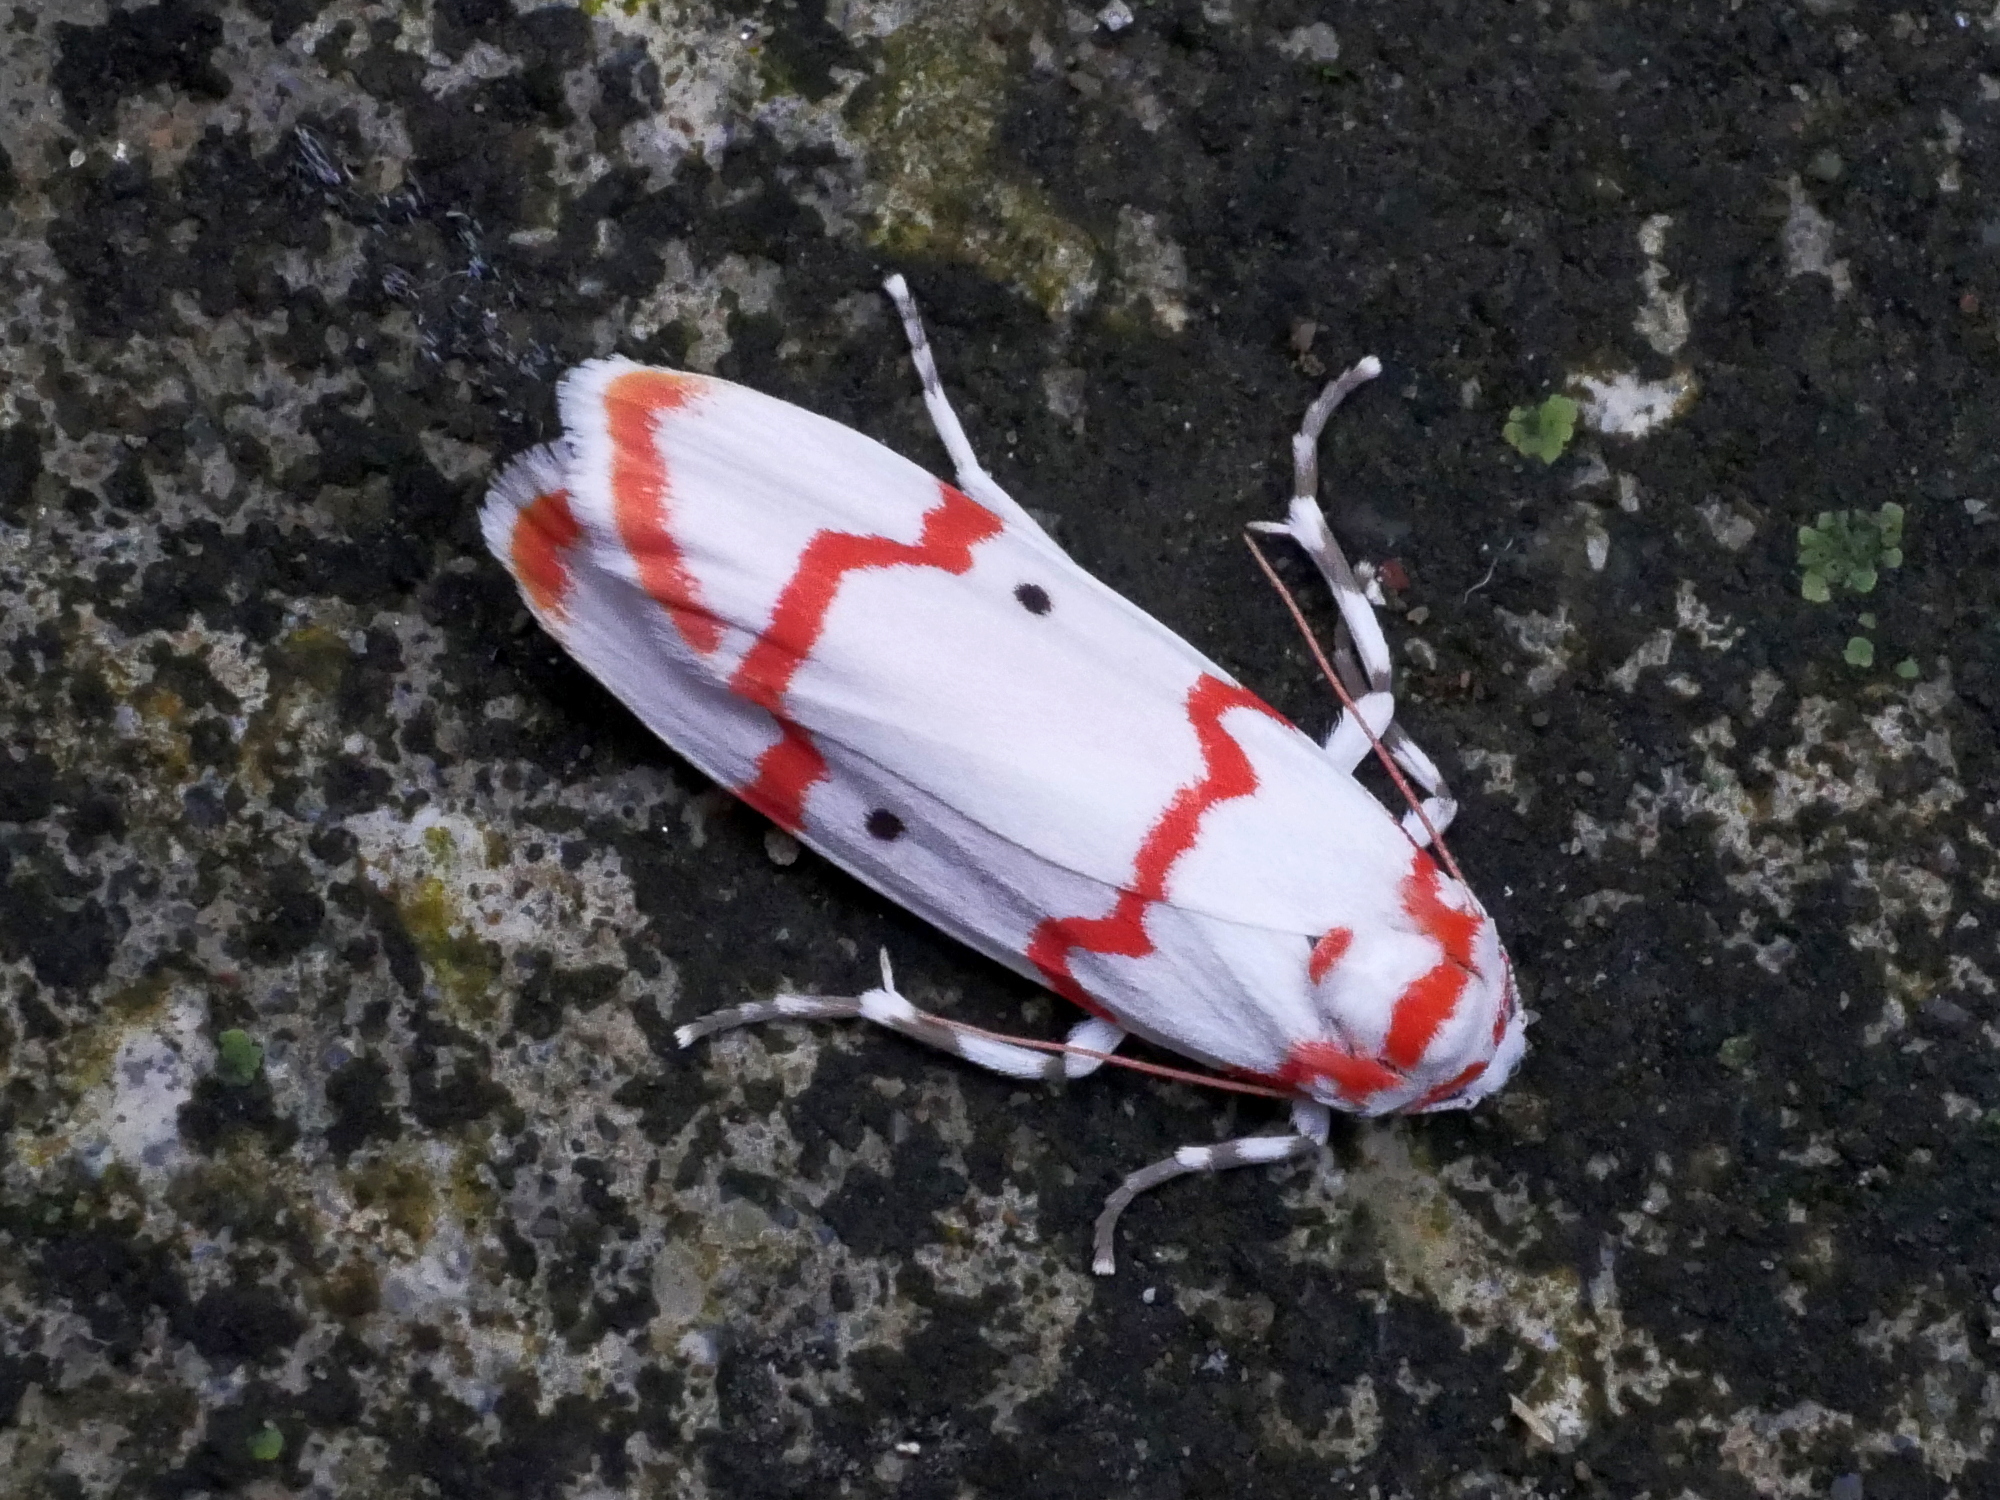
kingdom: Animalia
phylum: Arthropoda
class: Insecta
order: Lepidoptera
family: Erebidae
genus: Cyana
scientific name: Cyana hamata
